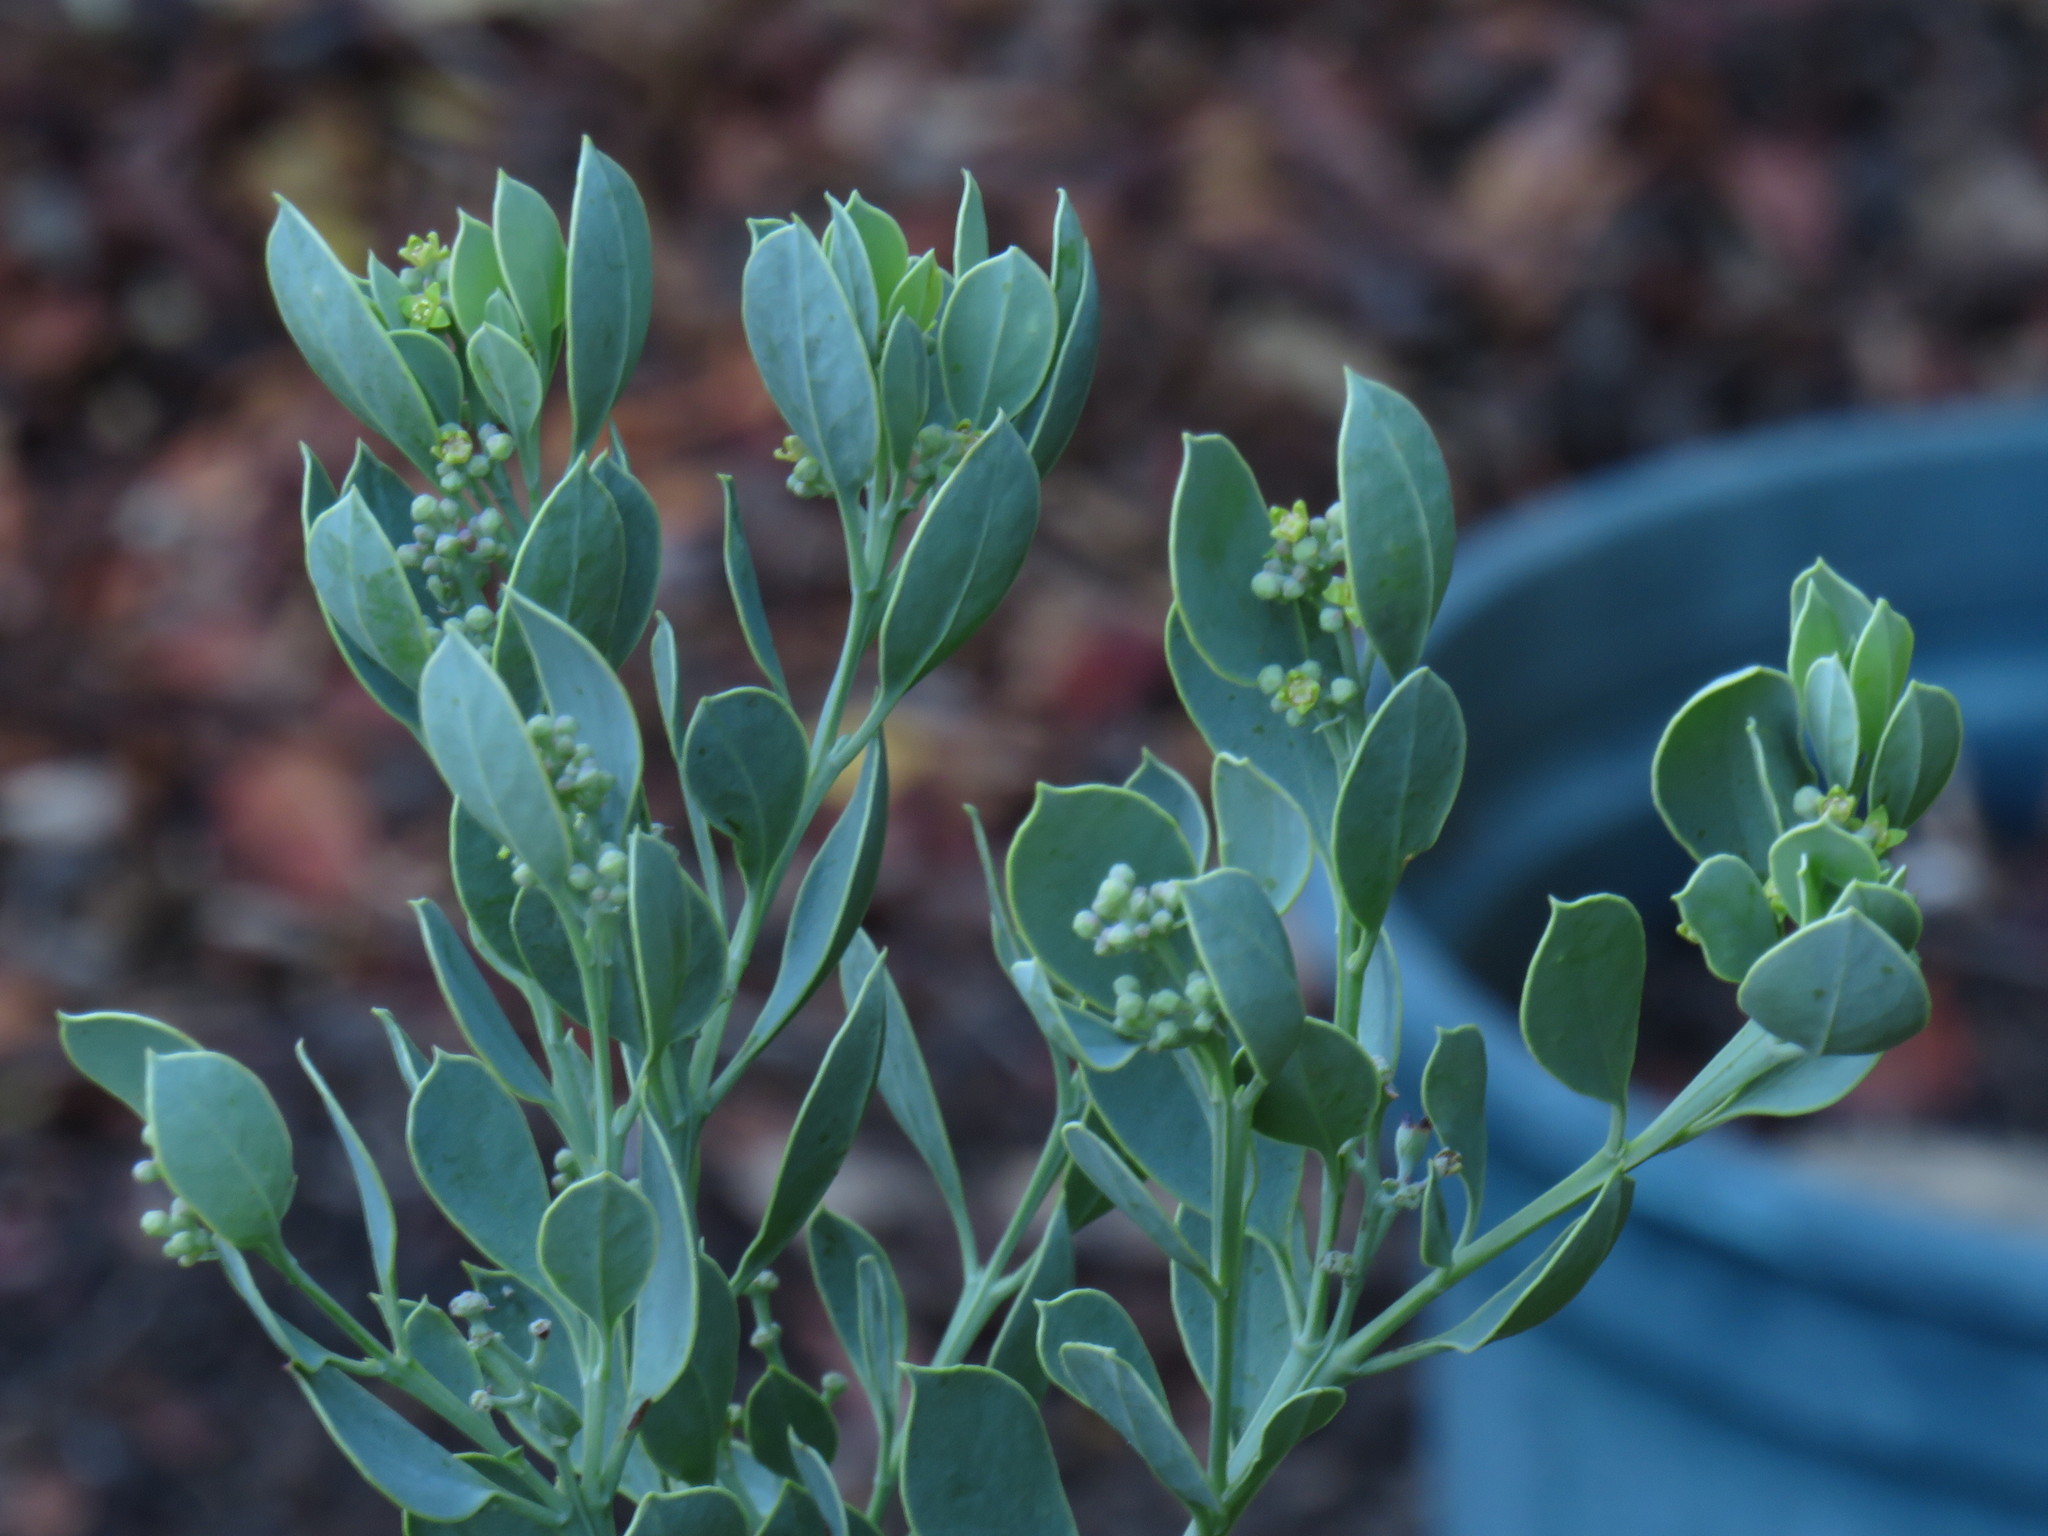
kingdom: Plantae
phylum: Tracheophyta
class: Magnoliopsida
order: Santalales
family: Santalaceae
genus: Osyris
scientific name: Osyris compressa
